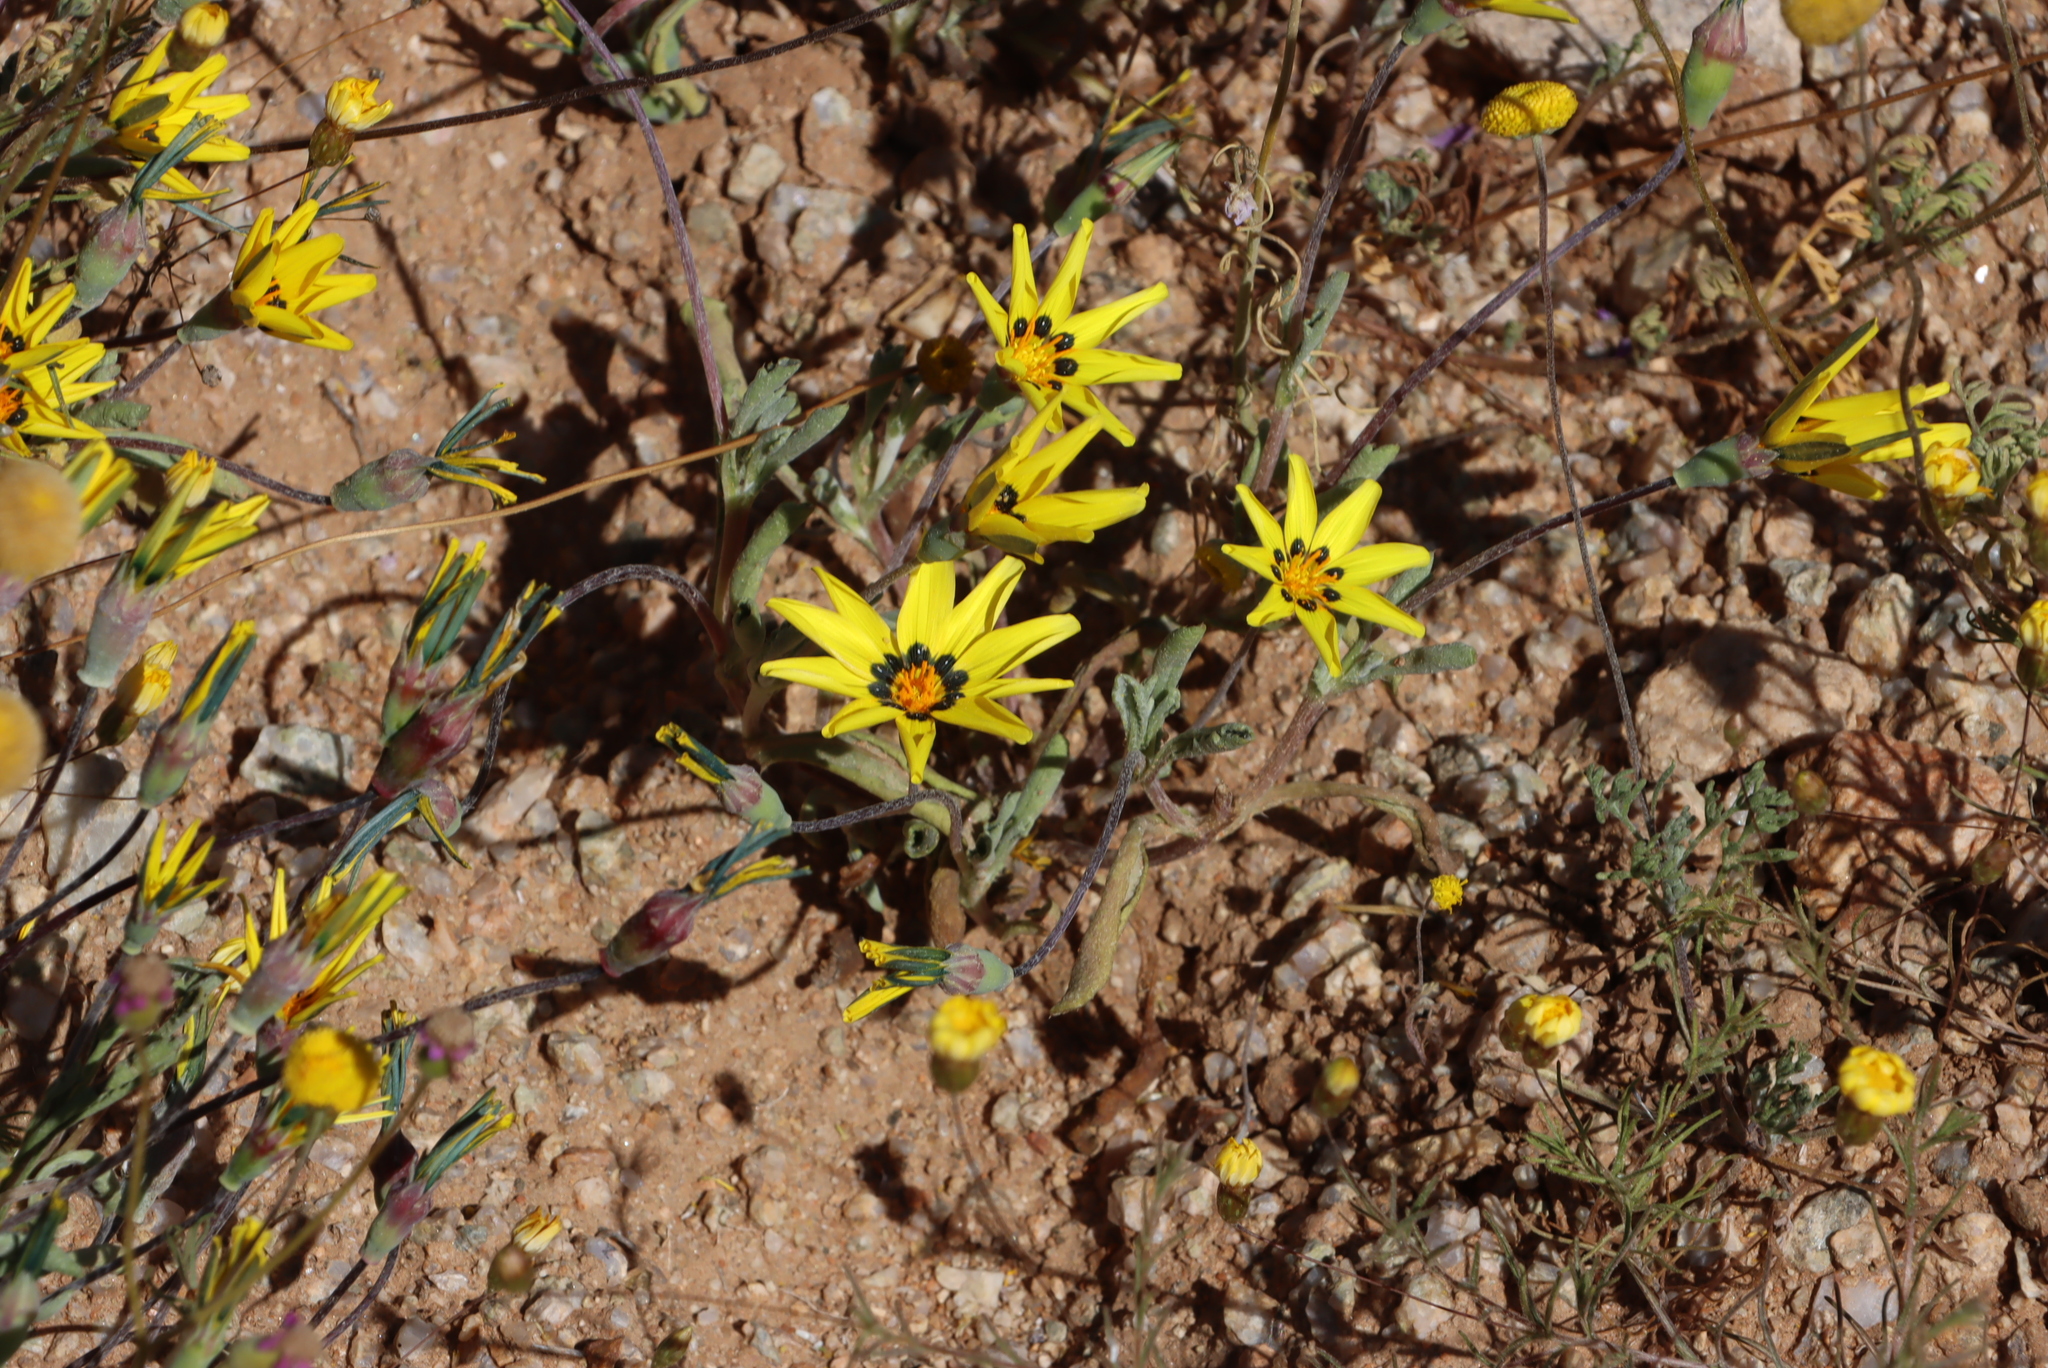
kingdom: Plantae
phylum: Tracheophyta
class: Magnoliopsida
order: Asterales
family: Asteraceae
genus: Gazania
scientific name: Gazania lichtensteinii
